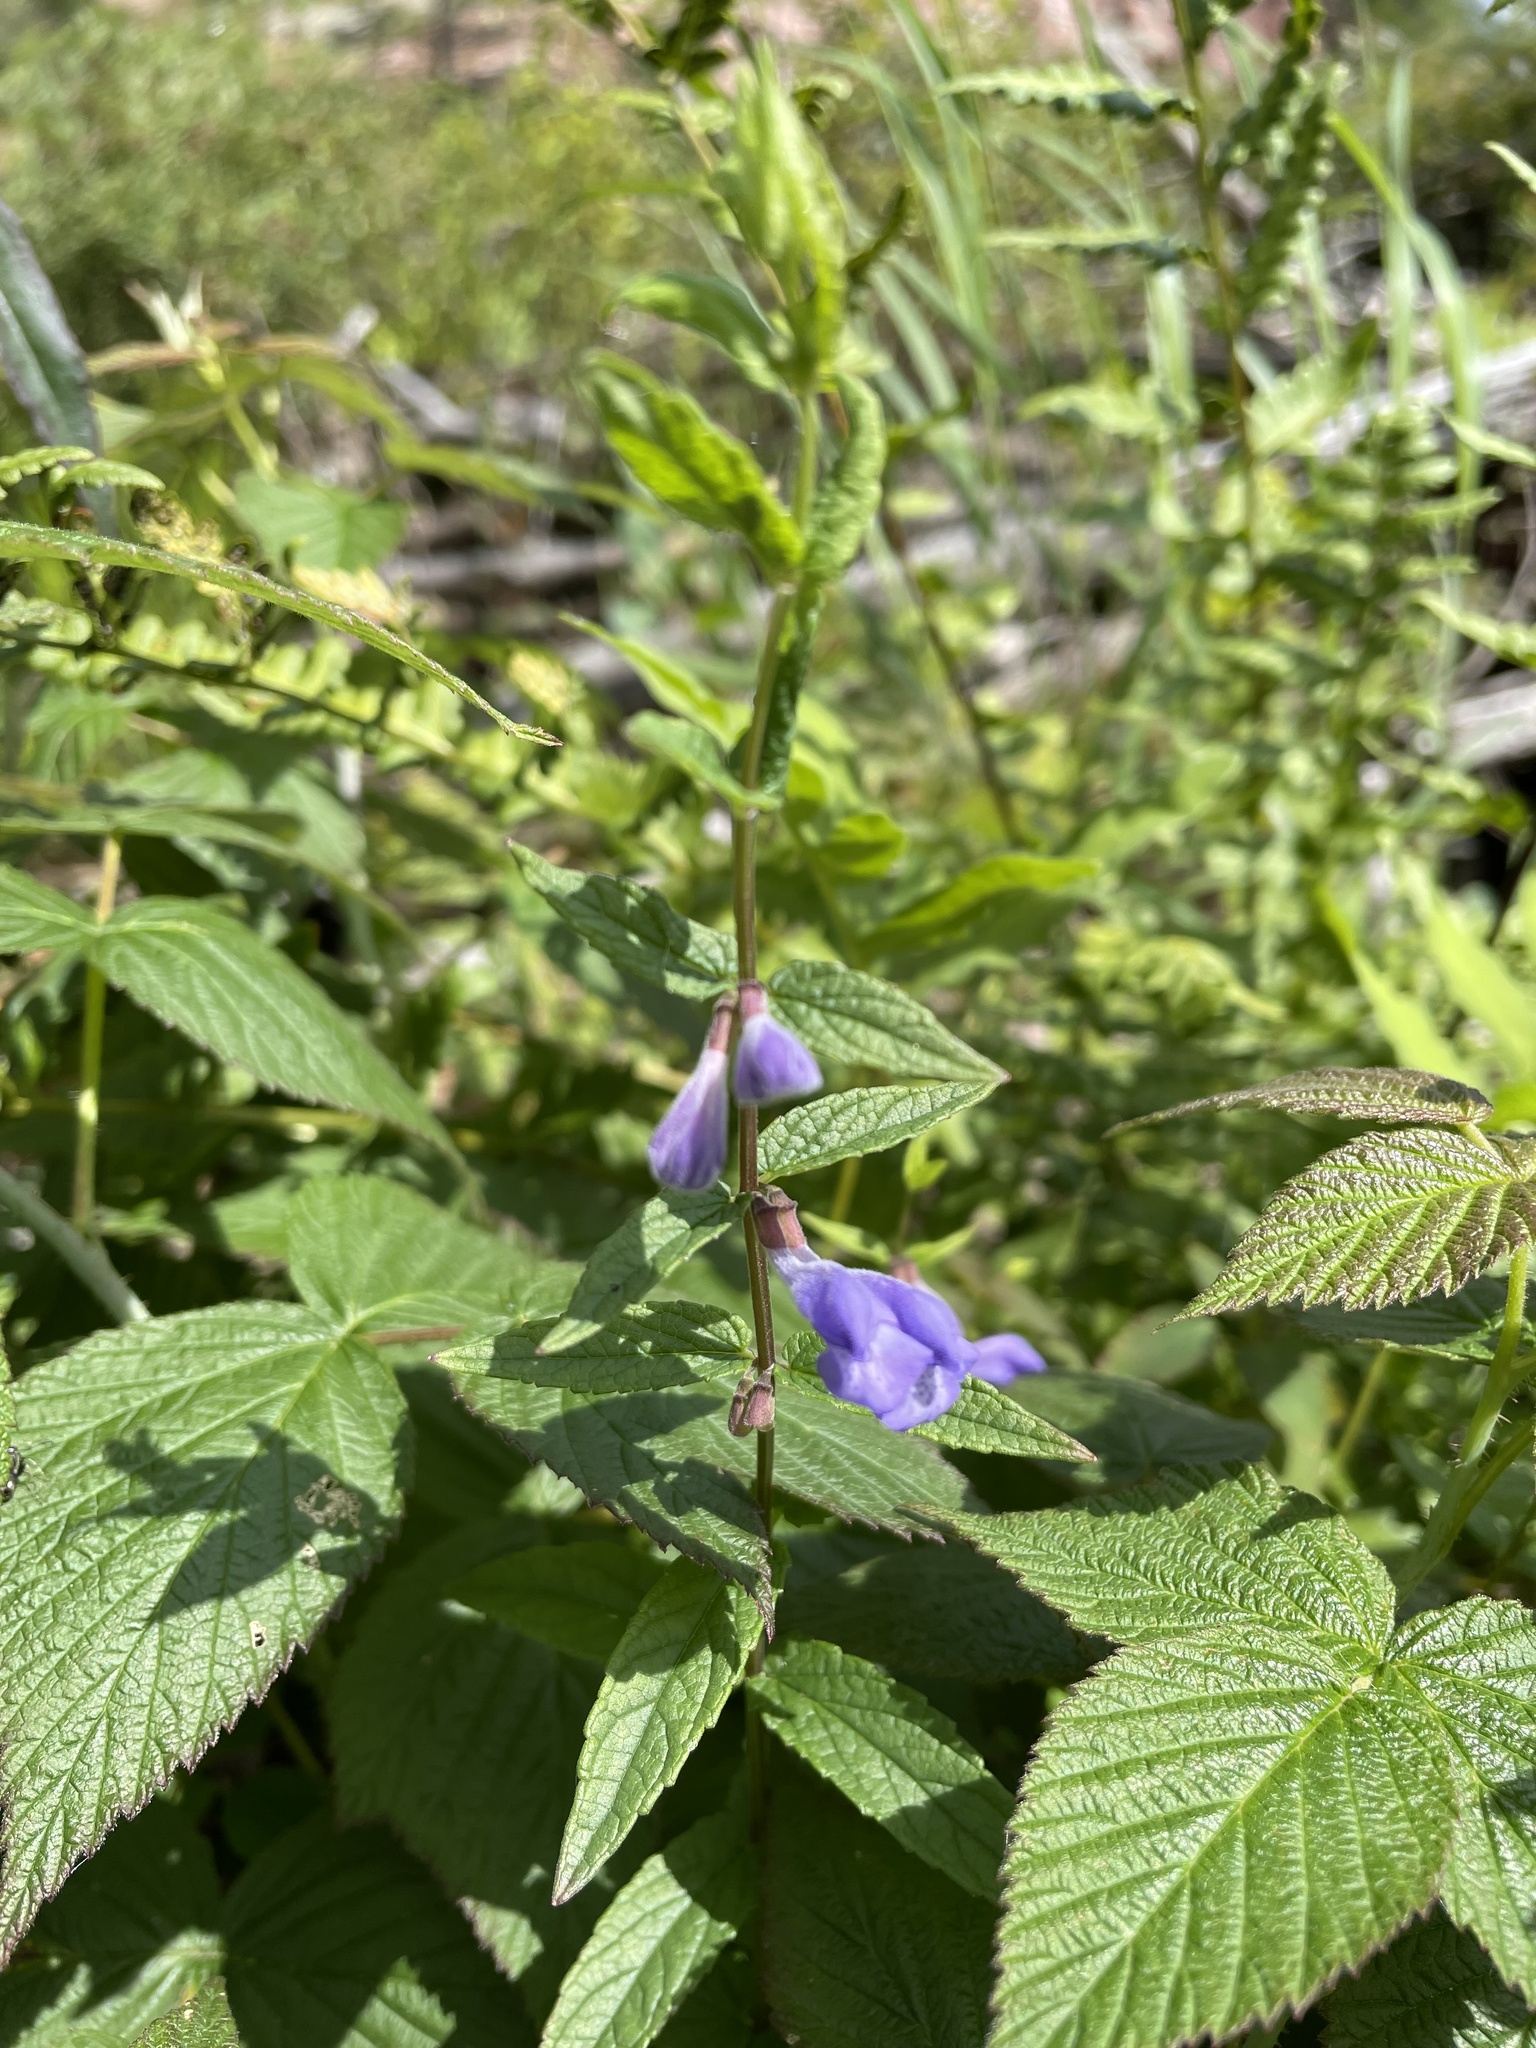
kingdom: Plantae
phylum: Tracheophyta
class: Magnoliopsida
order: Lamiales
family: Lamiaceae
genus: Scutellaria
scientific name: Scutellaria galericulata
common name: Skullcap
